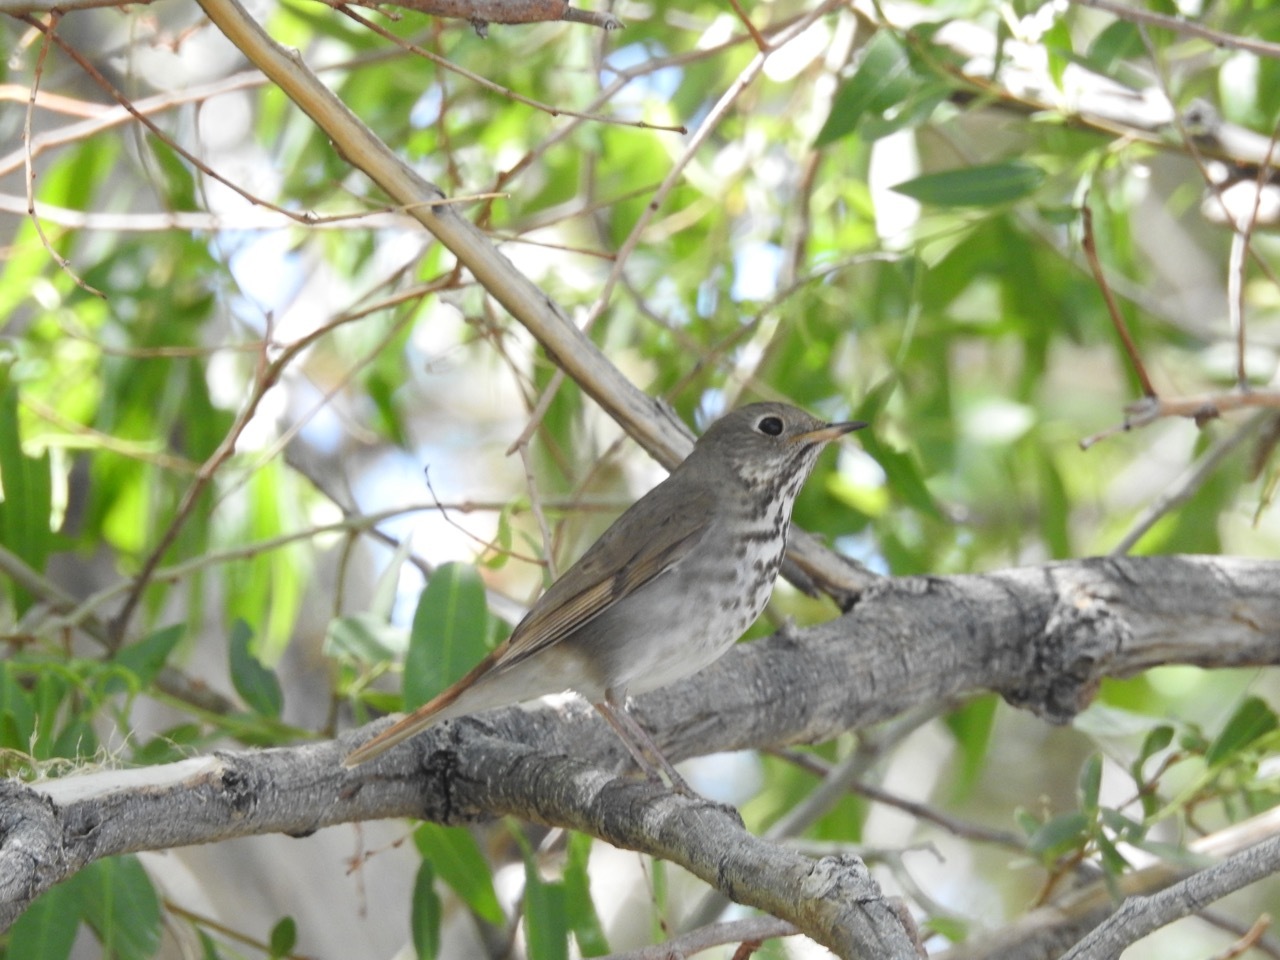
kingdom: Animalia
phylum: Chordata
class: Aves
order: Passeriformes
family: Turdidae
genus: Catharus
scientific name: Catharus guttatus
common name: Hermit thrush
